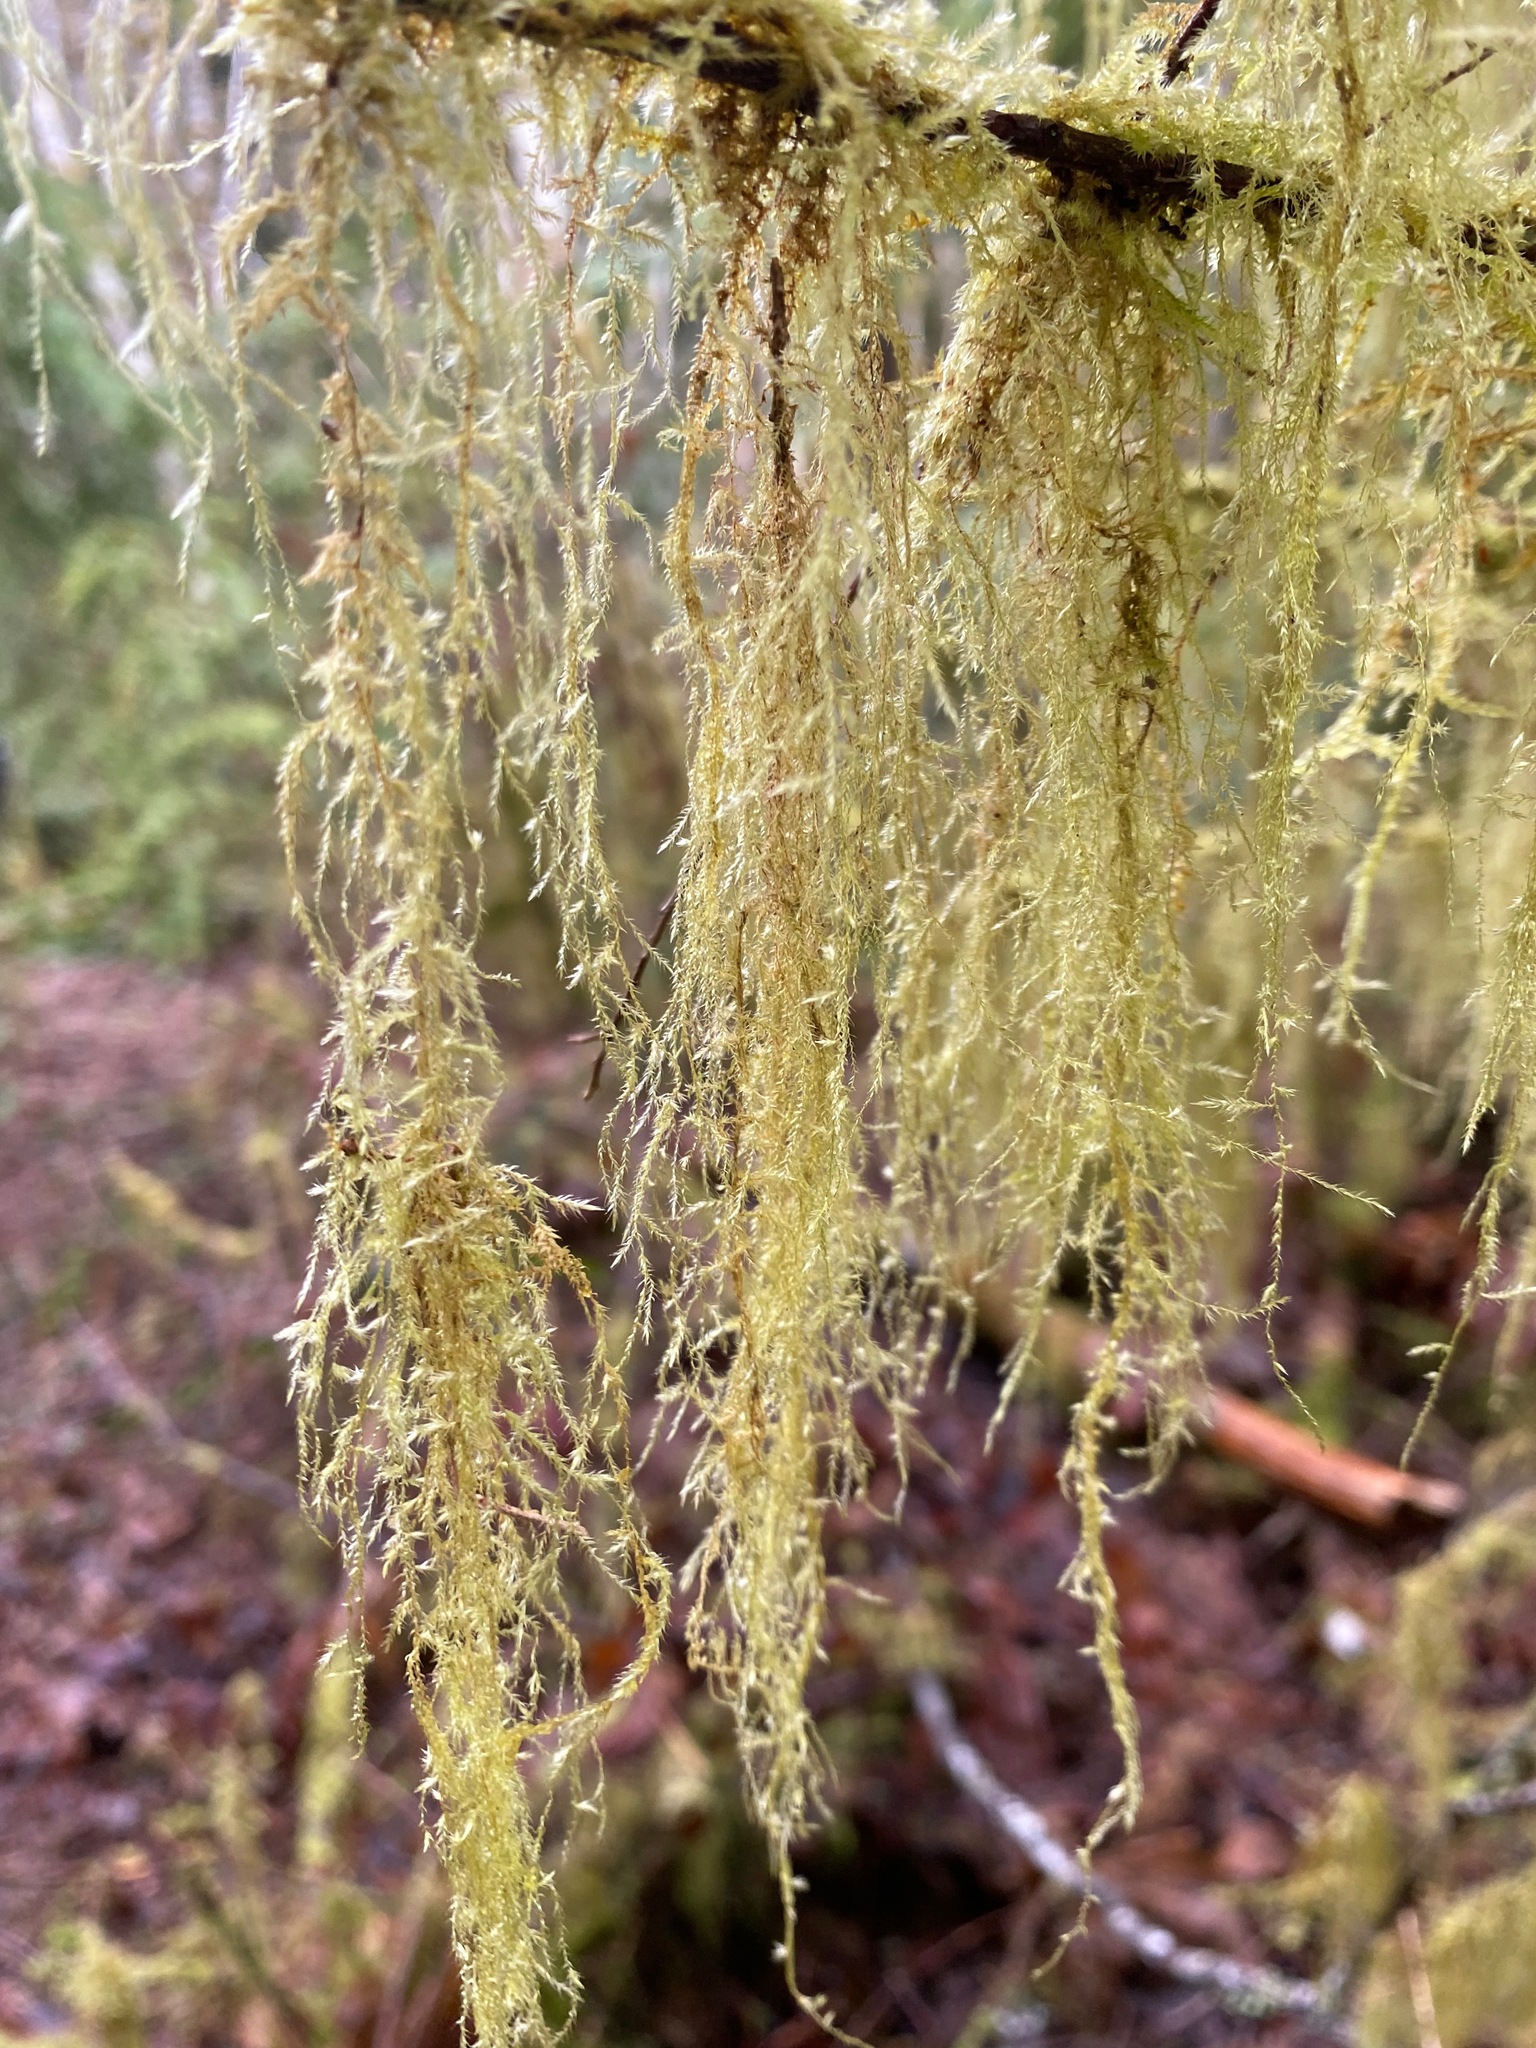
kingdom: Plantae
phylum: Bryophyta
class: Bryopsida
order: Hypnales
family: Lembophyllaceae
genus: Pseudisothecium
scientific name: Pseudisothecium stoloniferum
